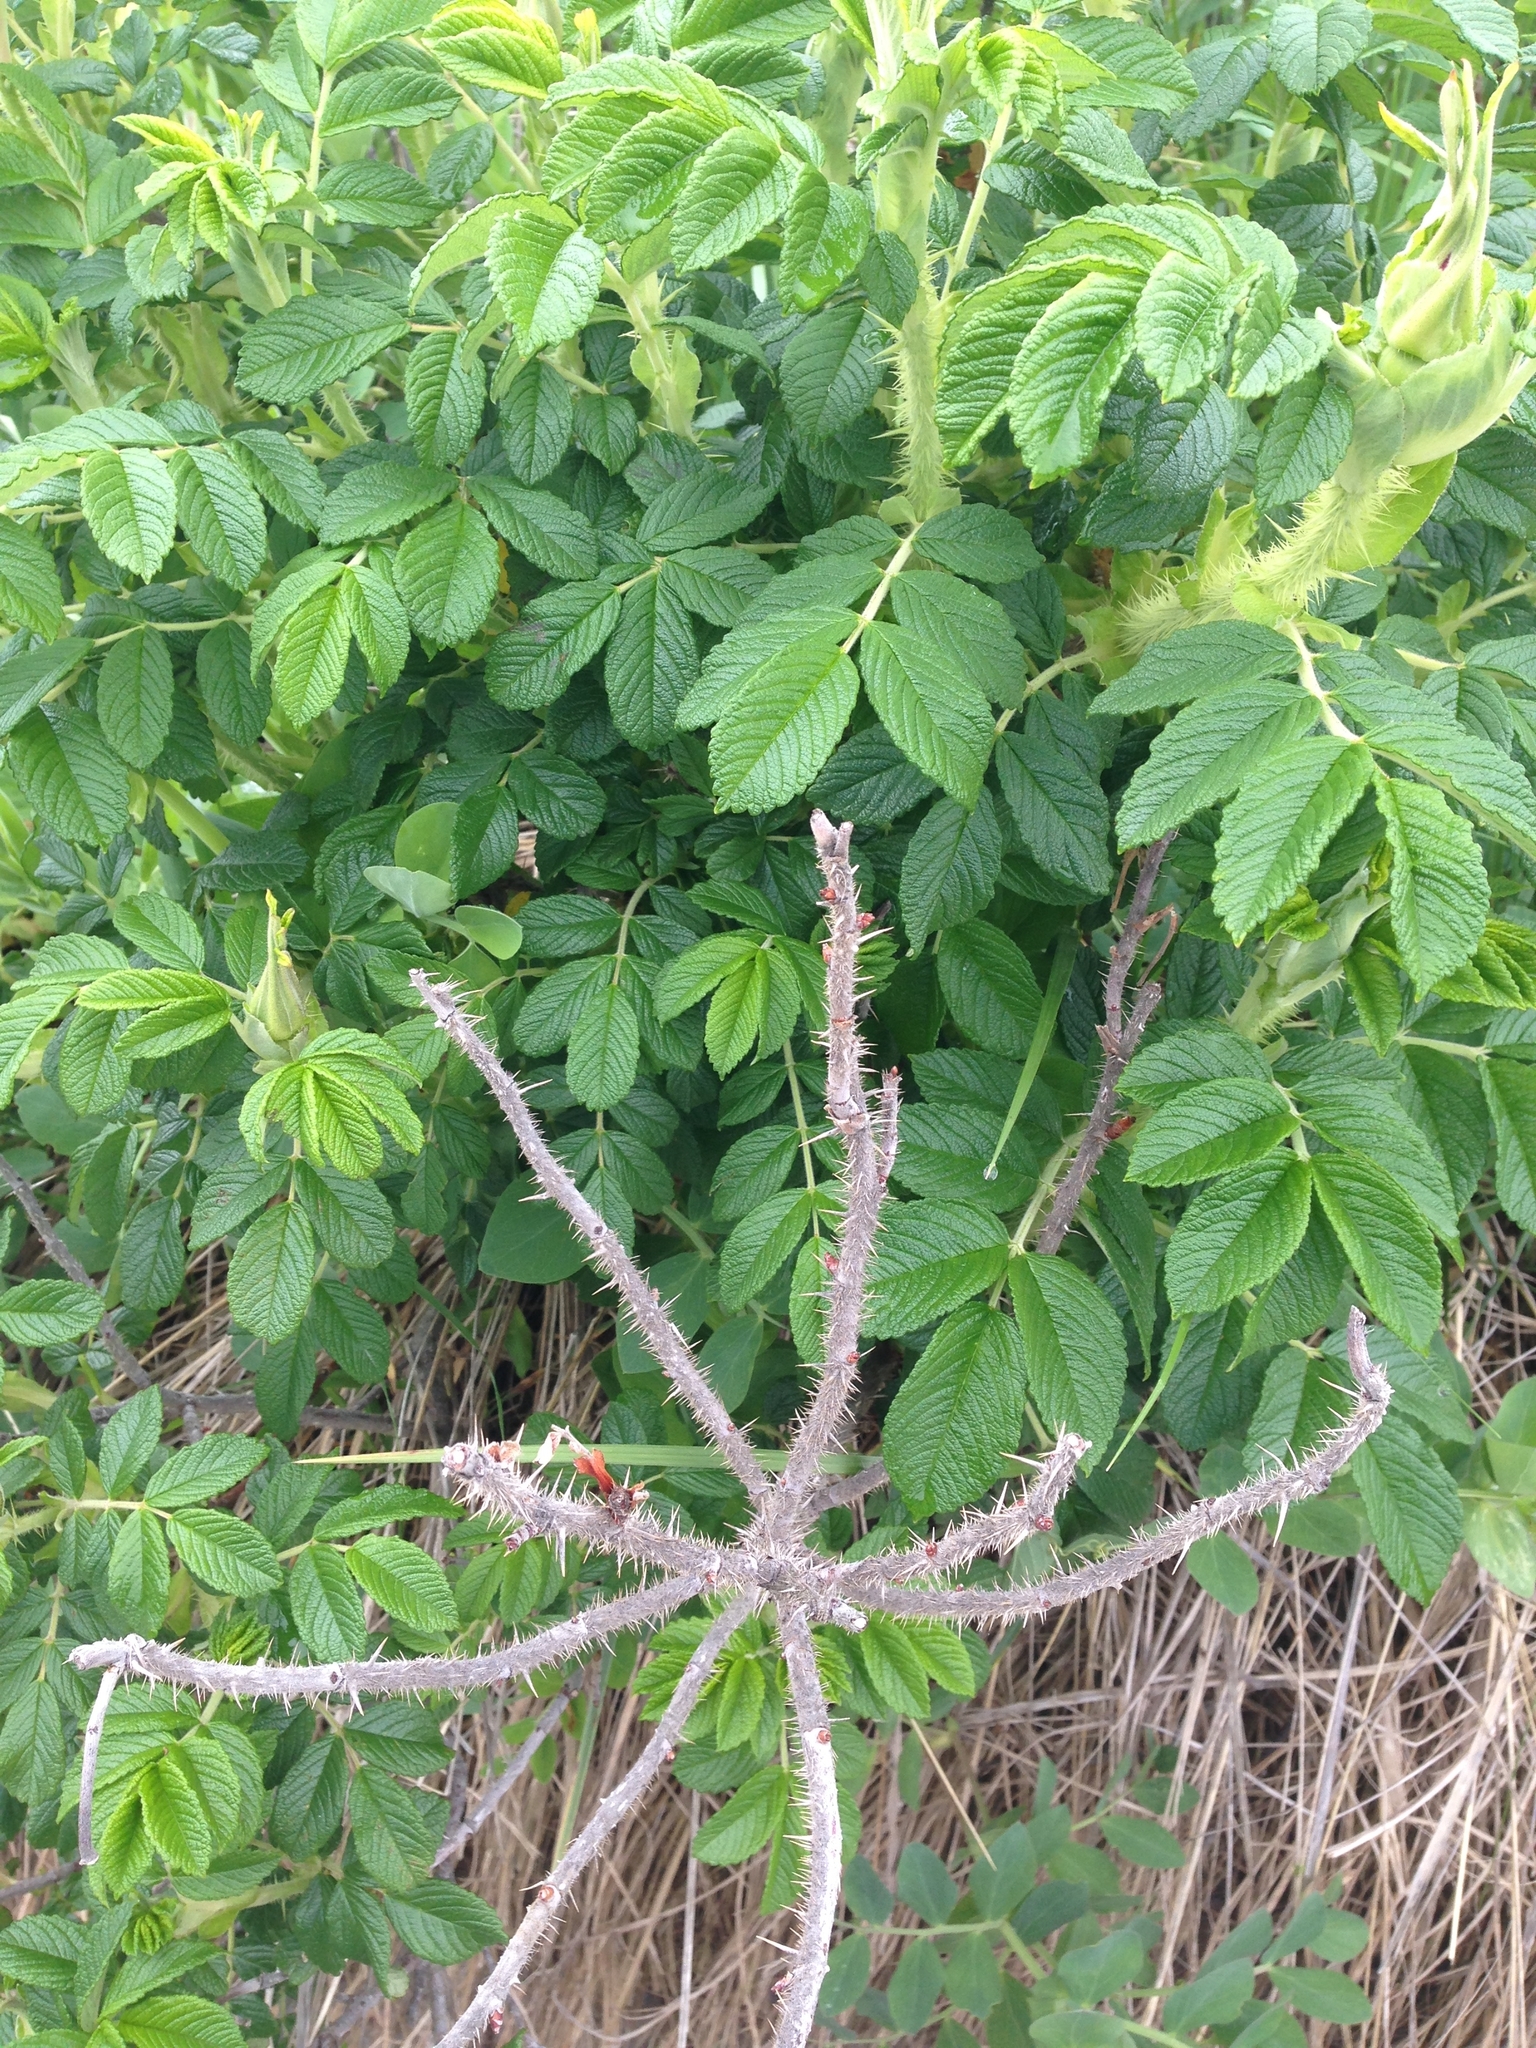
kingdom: Plantae
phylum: Tracheophyta
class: Magnoliopsida
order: Rosales
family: Rosaceae
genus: Rosa
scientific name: Rosa rugosa
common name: Japanese rose
